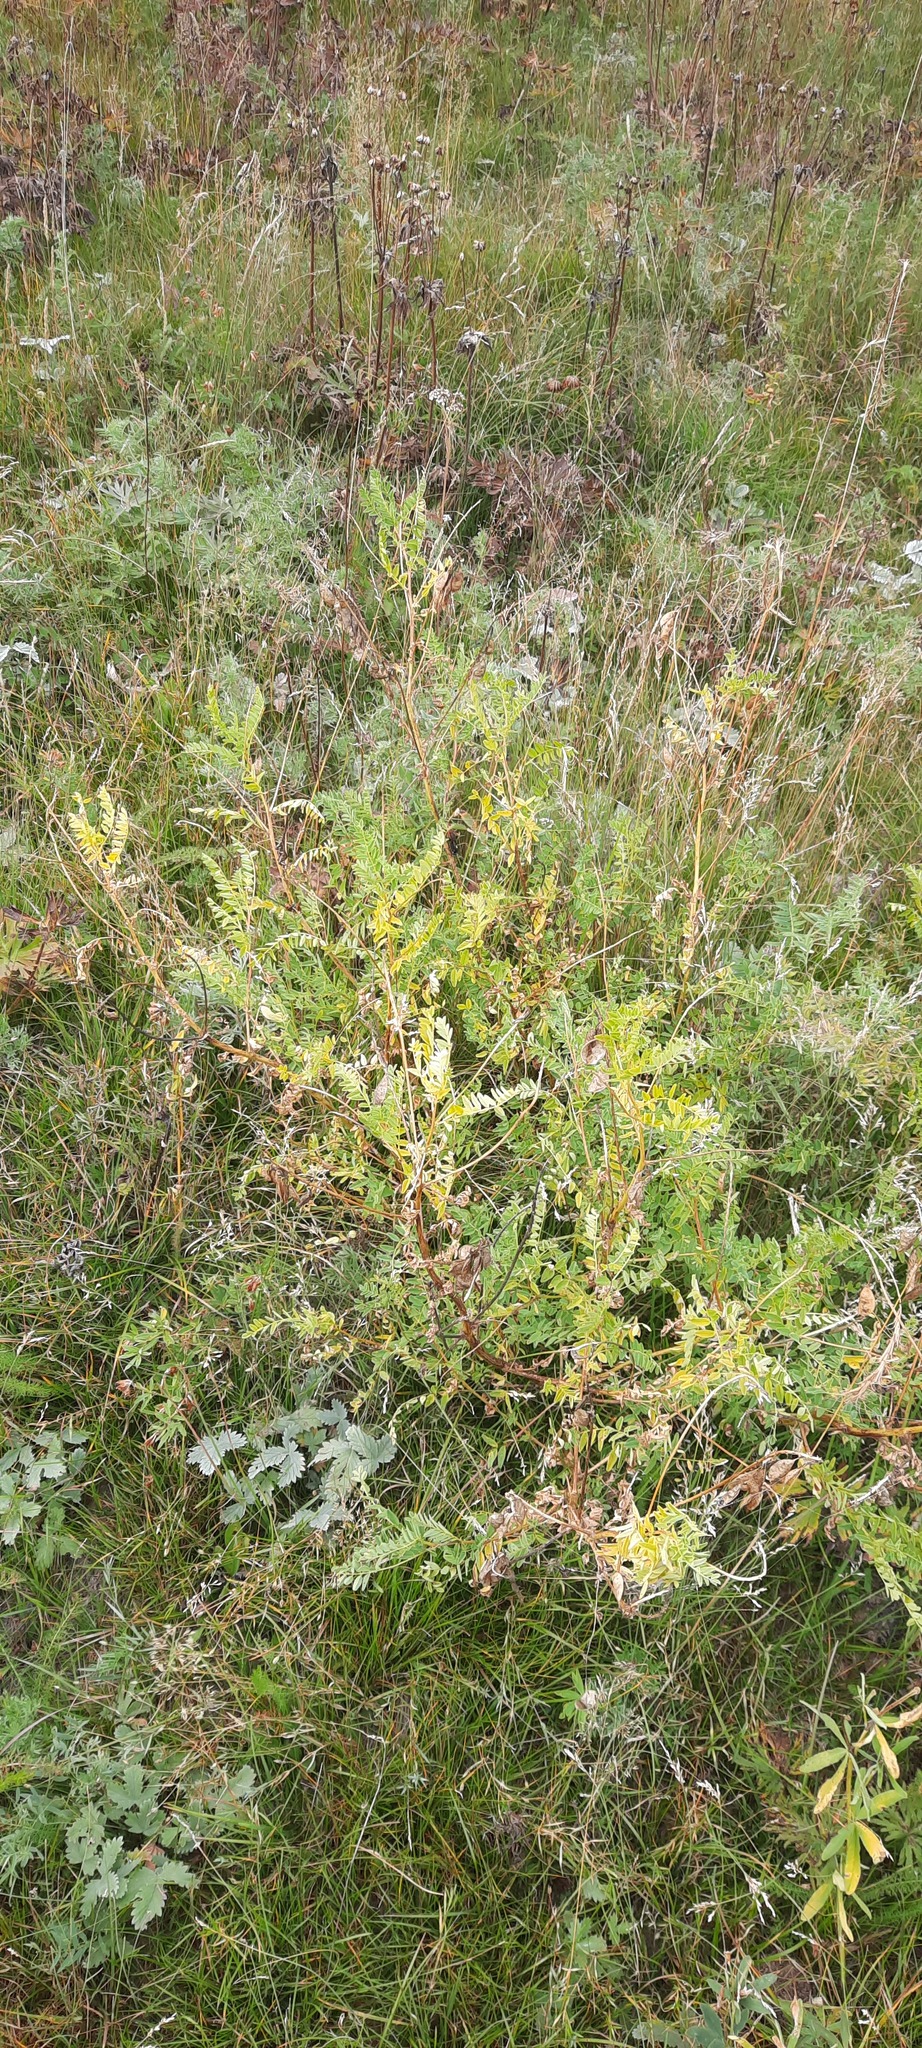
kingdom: Plantae
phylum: Tracheophyta
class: Magnoliopsida
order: Fabales
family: Fabaceae
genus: Astragalus
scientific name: Astragalus mongholicus
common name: Membranous milk-vetch
